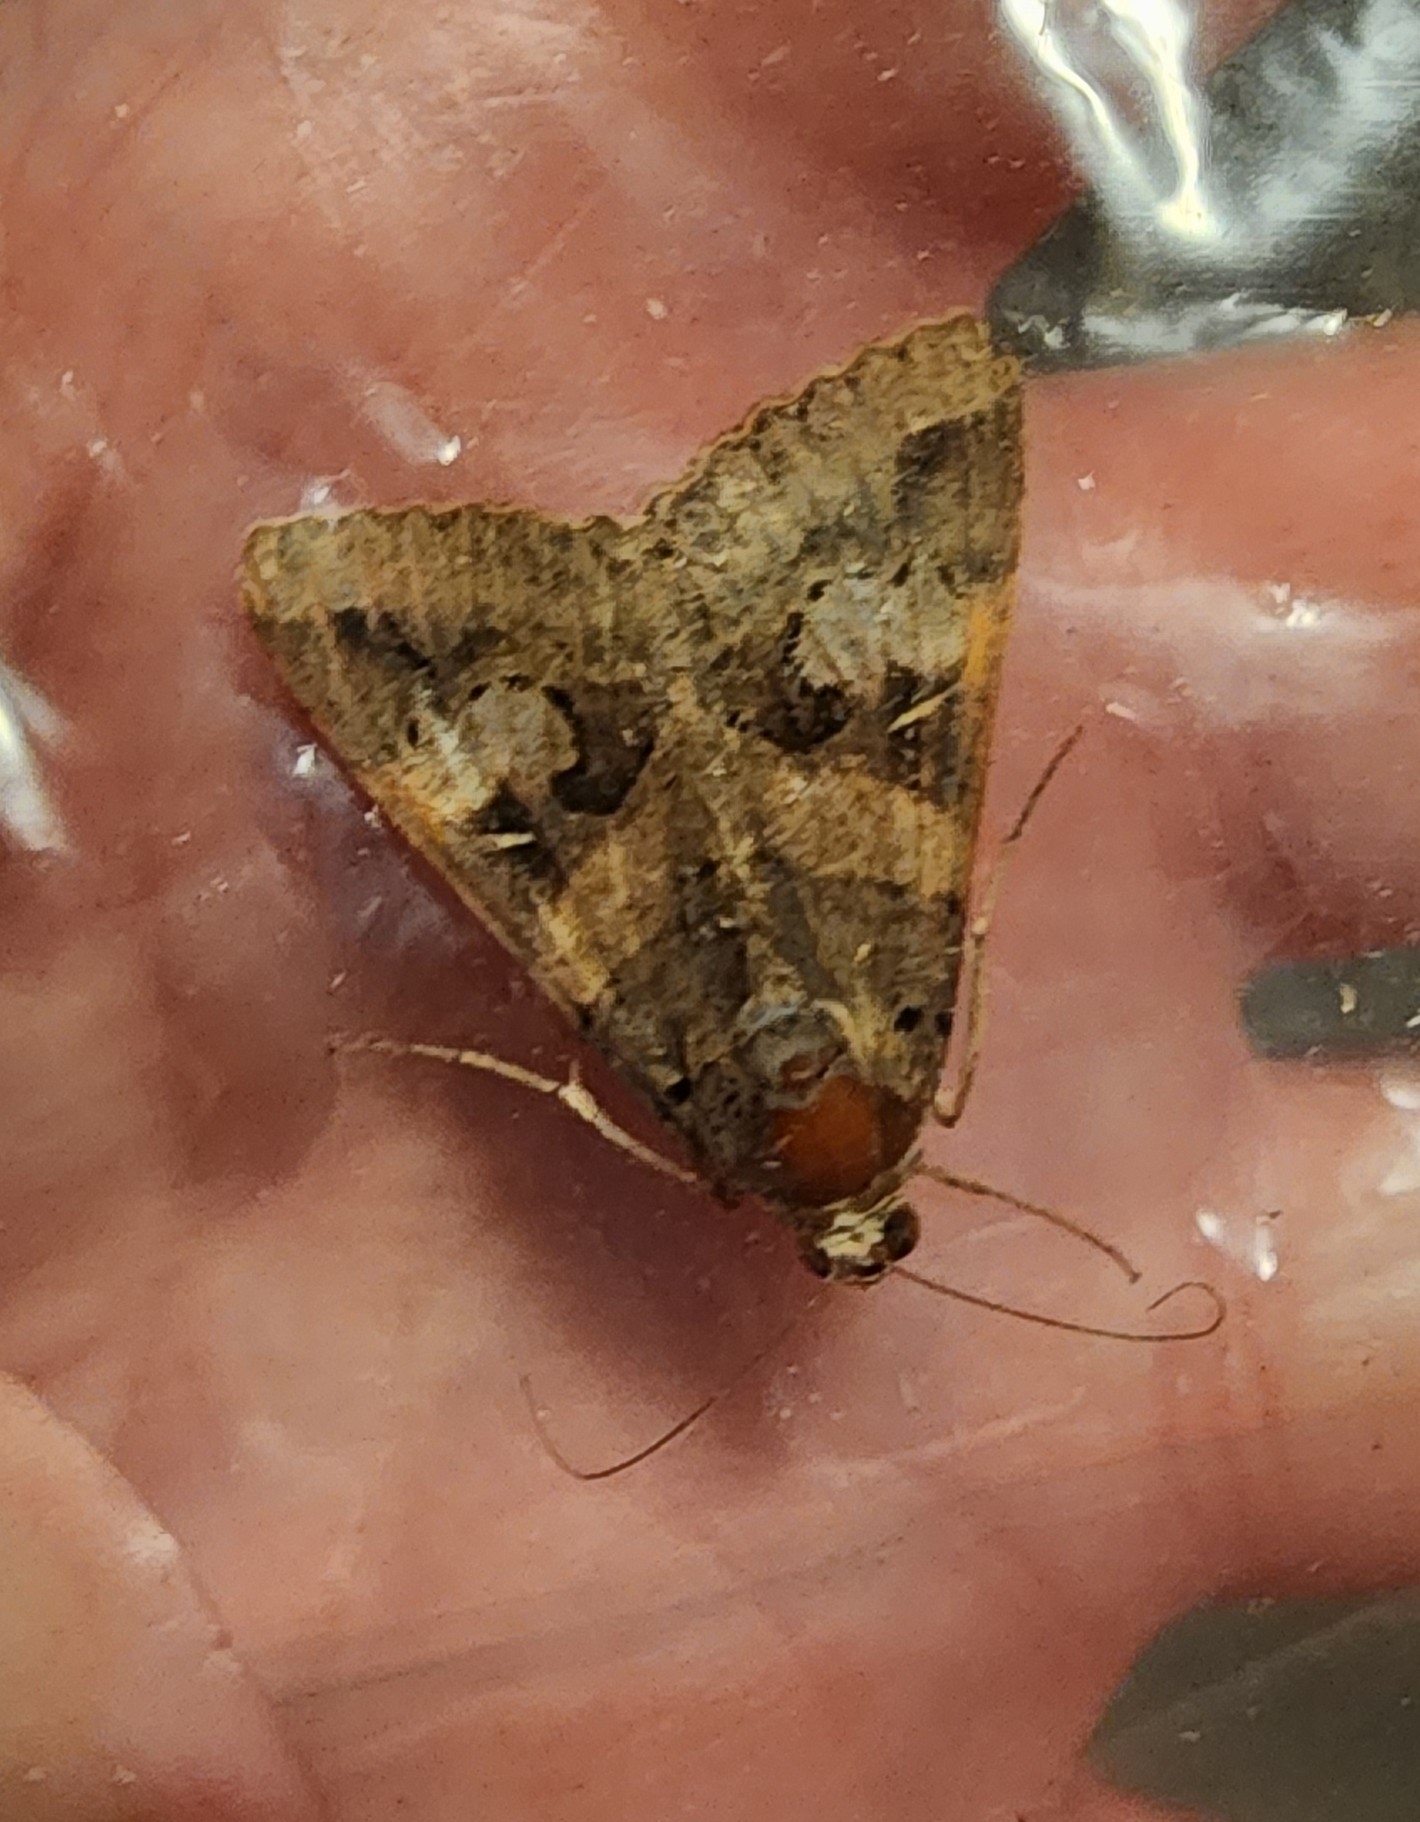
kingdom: Animalia
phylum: Arthropoda
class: Insecta
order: Lepidoptera
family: Erebidae
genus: Melipotis
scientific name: Melipotis indomita
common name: Moth
